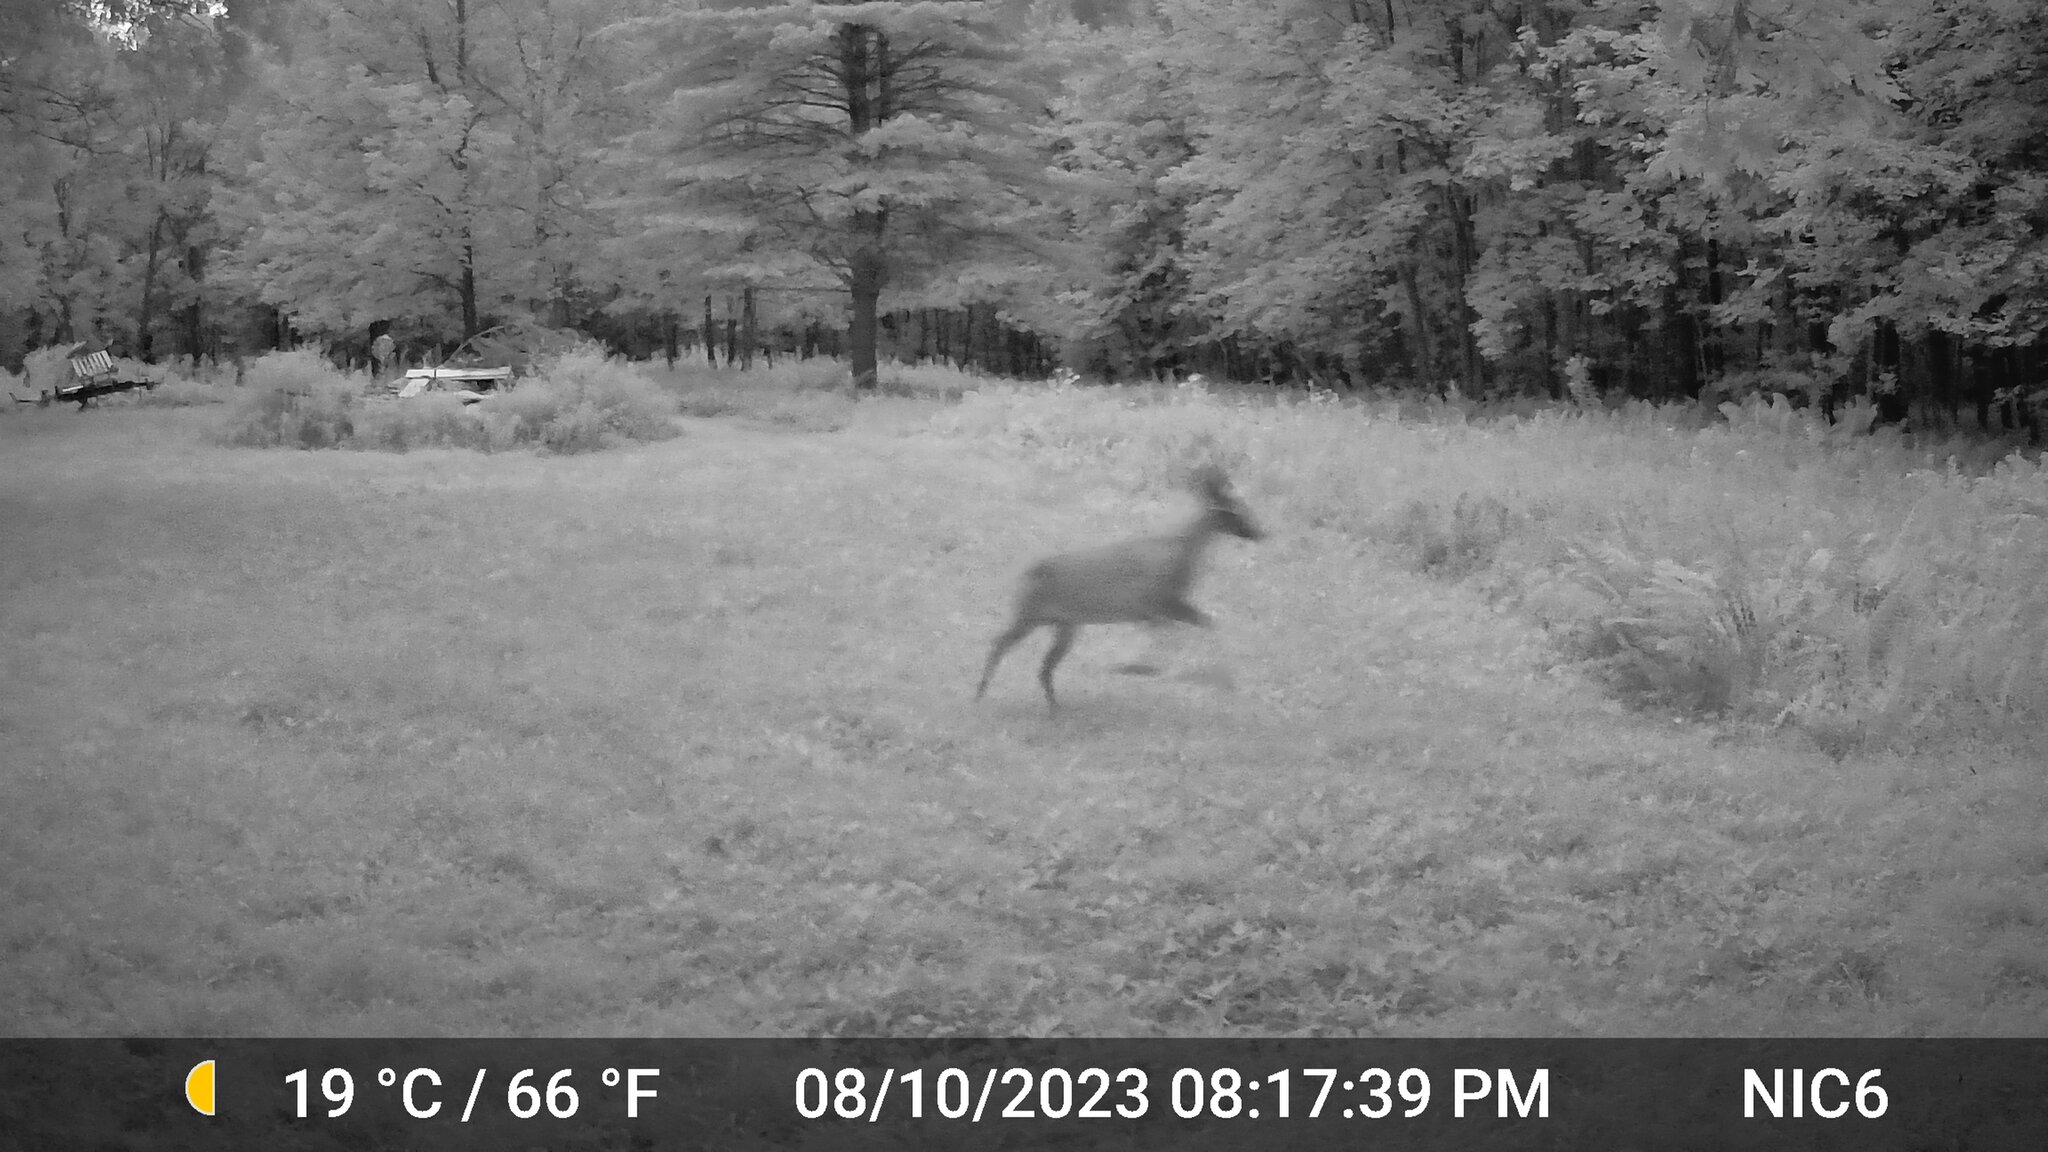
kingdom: Animalia
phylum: Chordata
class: Mammalia
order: Artiodactyla
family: Cervidae
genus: Odocoileus
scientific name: Odocoileus virginianus
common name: White-tailed deer
